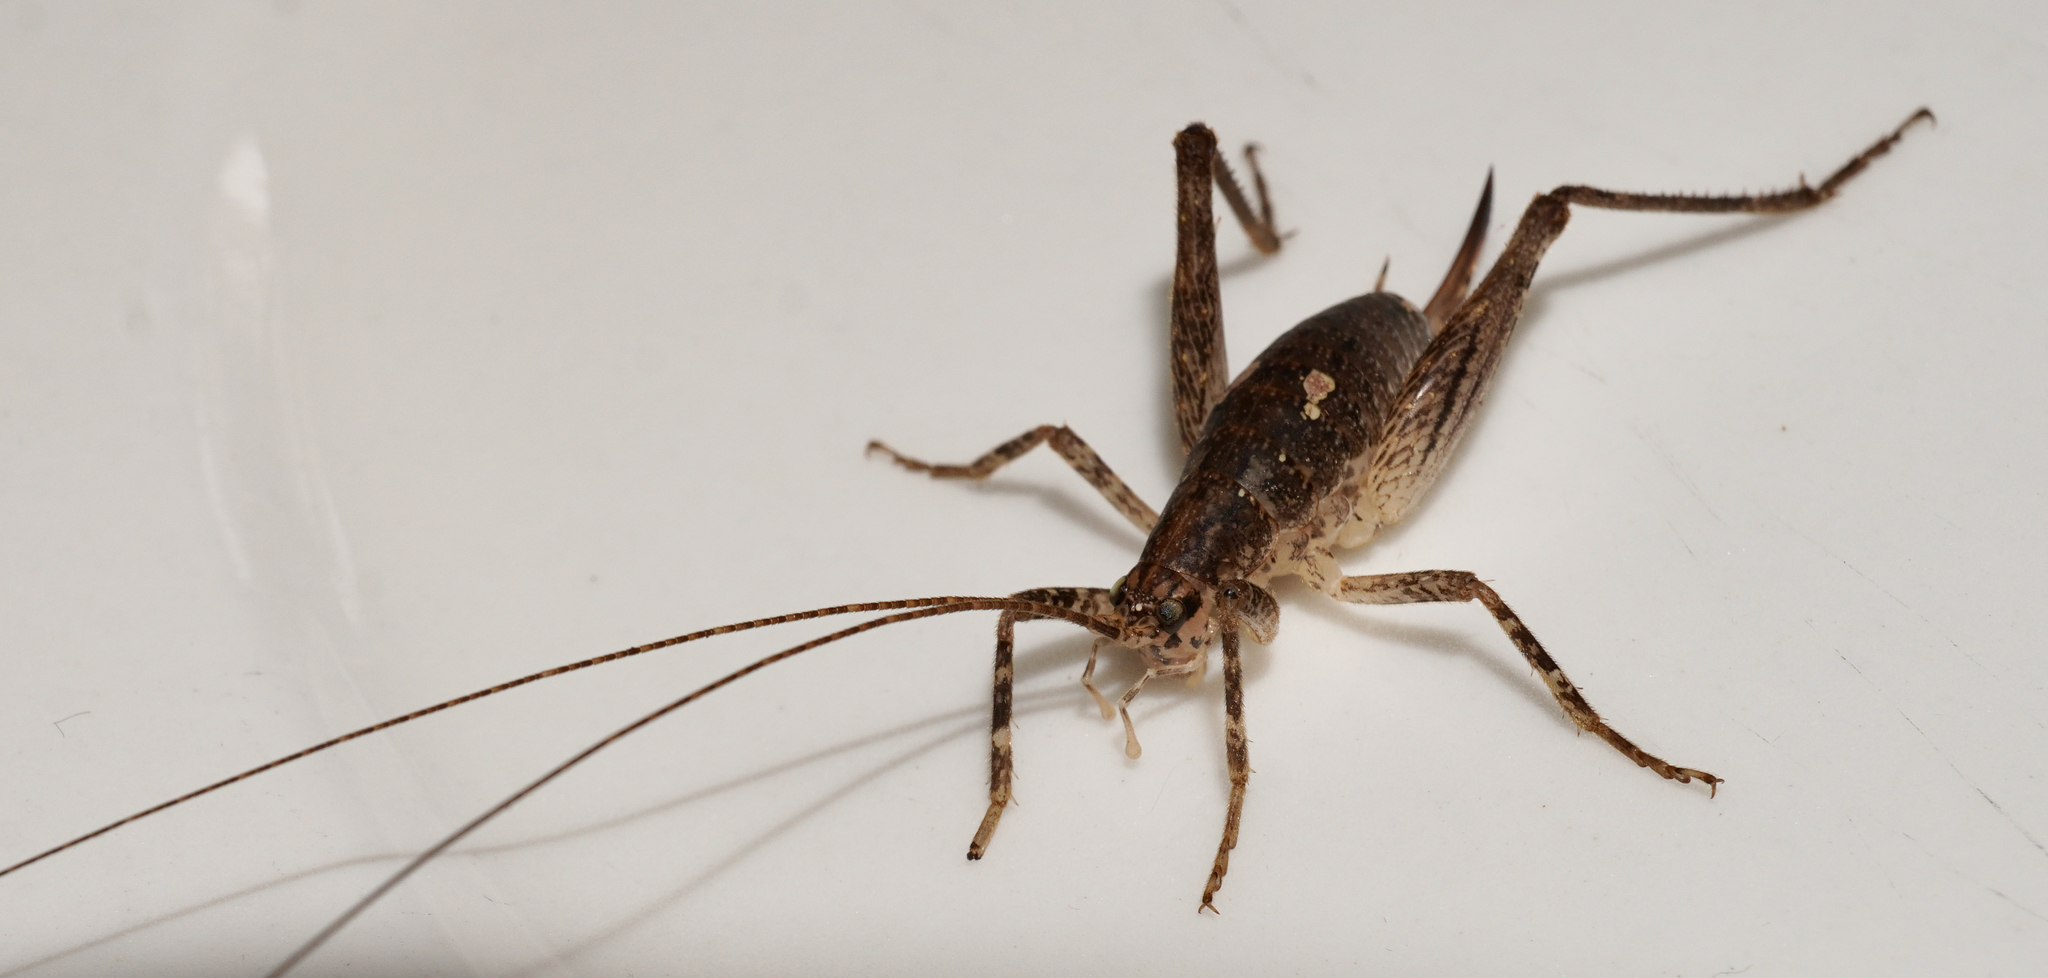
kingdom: Animalia
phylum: Arthropoda
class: Insecta
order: Orthoptera
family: Rhaphidophoridae
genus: Isoplectron
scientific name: Isoplectron armatum
